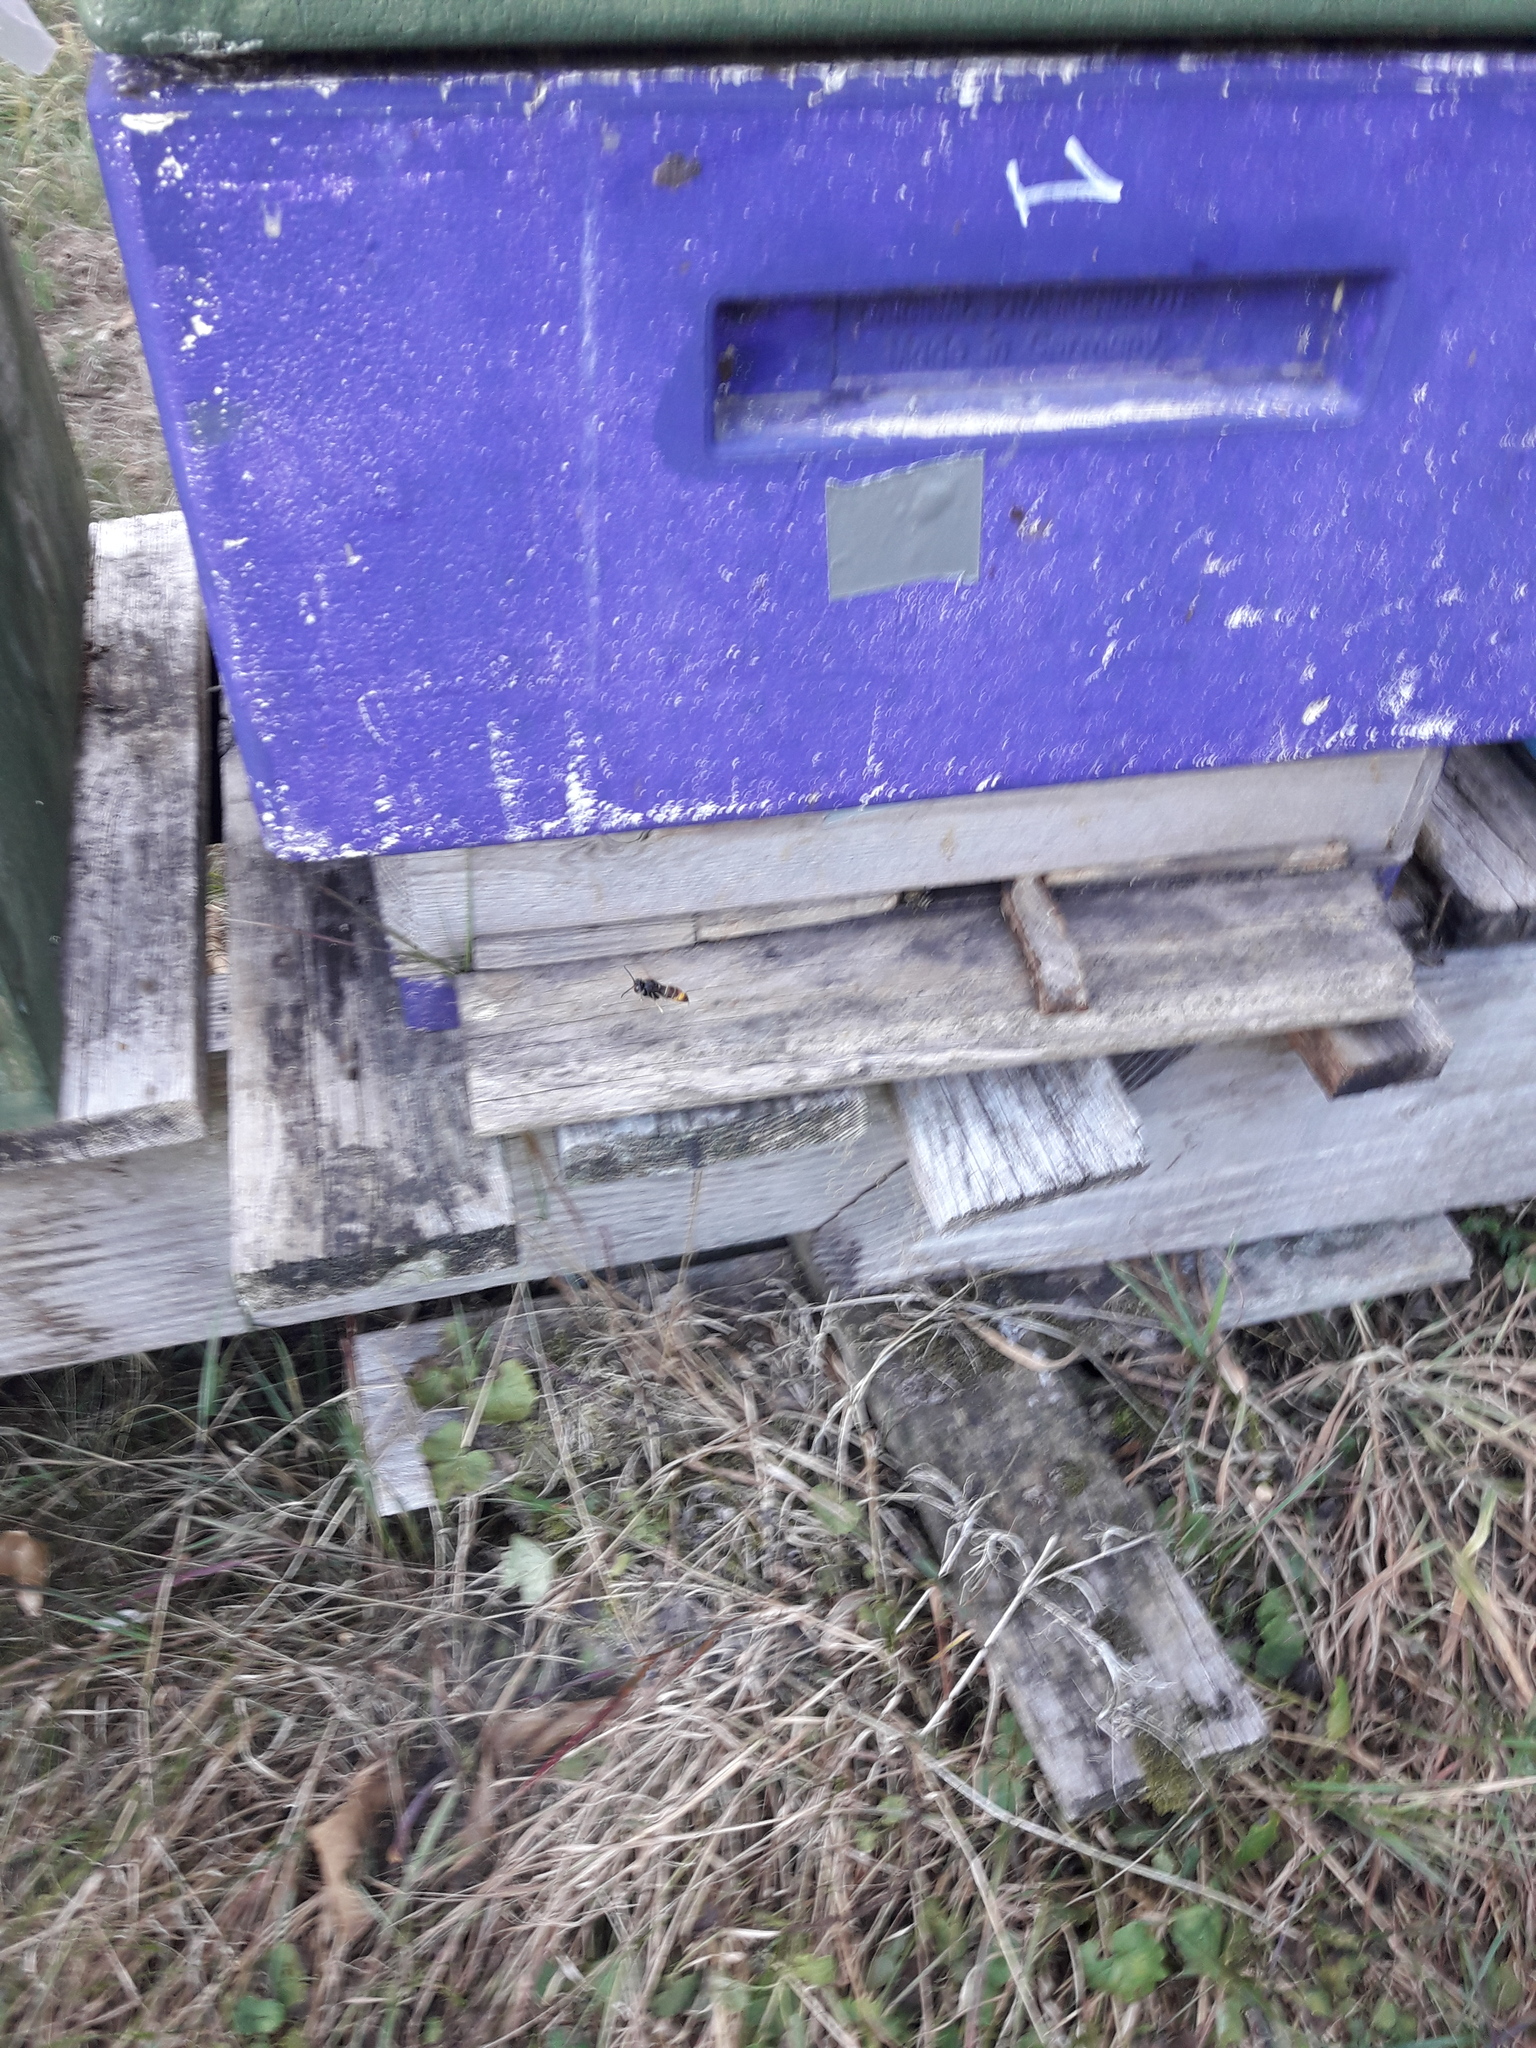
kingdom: Animalia
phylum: Arthropoda
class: Insecta
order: Hymenoptera
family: Vespidae
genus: Vespa
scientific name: Vespa velutina
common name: Asian hornet
